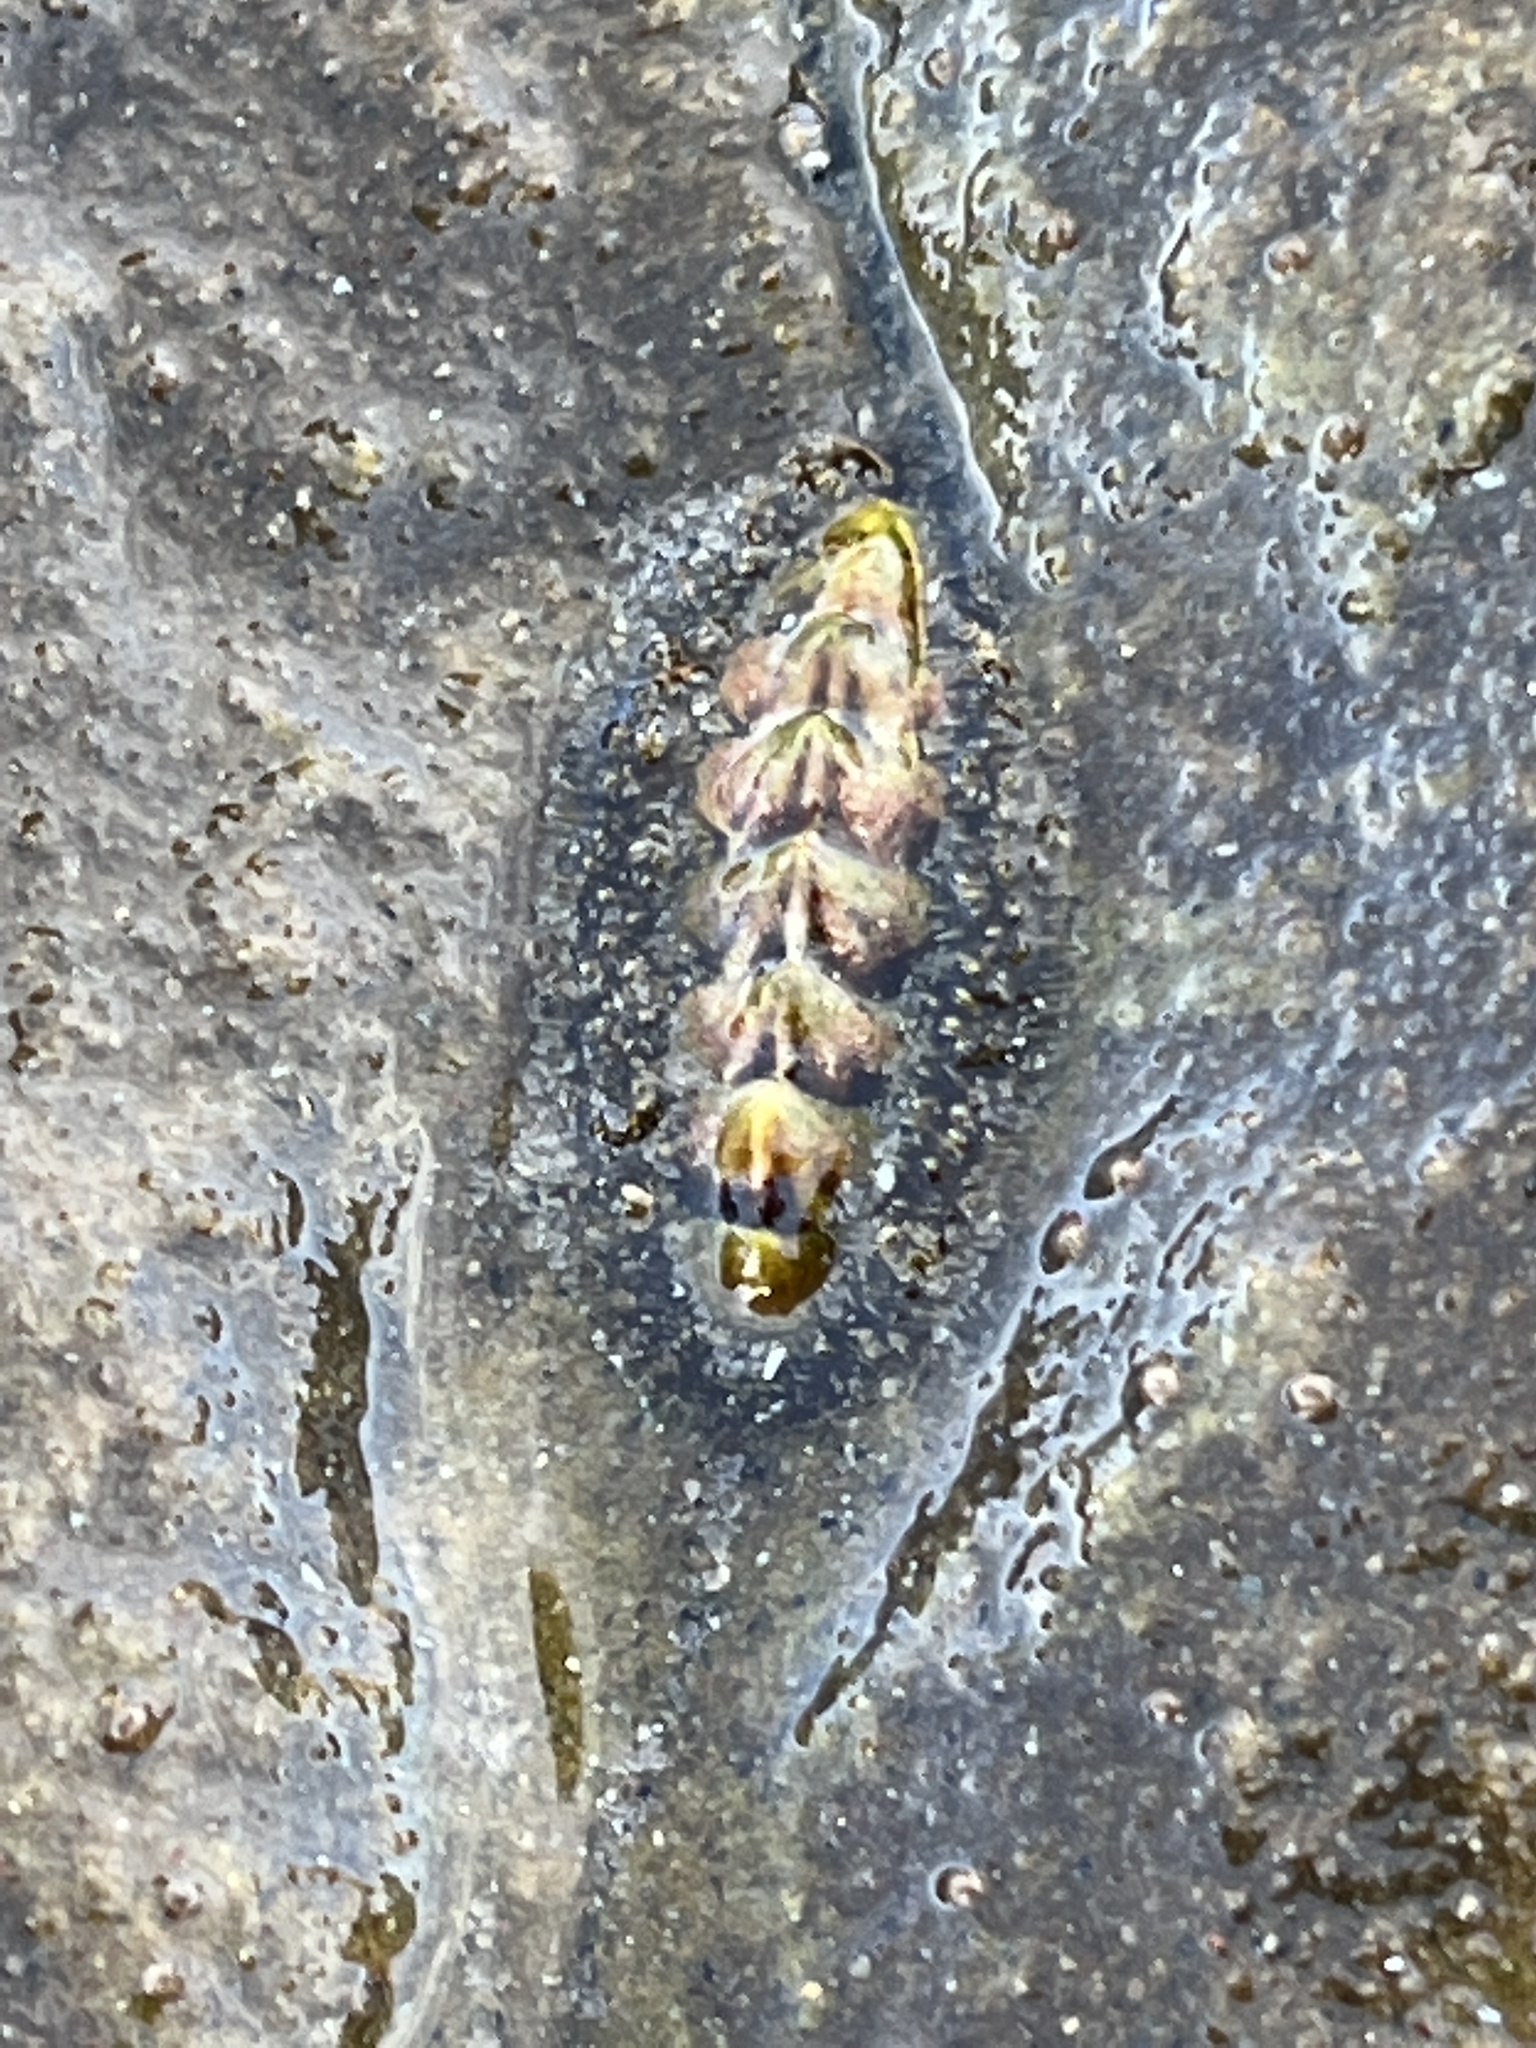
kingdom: Animalia
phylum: Mollusca
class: Polyplacophora
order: Chitonida
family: Tonicellidae
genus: Nuttallina
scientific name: Nuttallina californica
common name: California nuttall chiton
